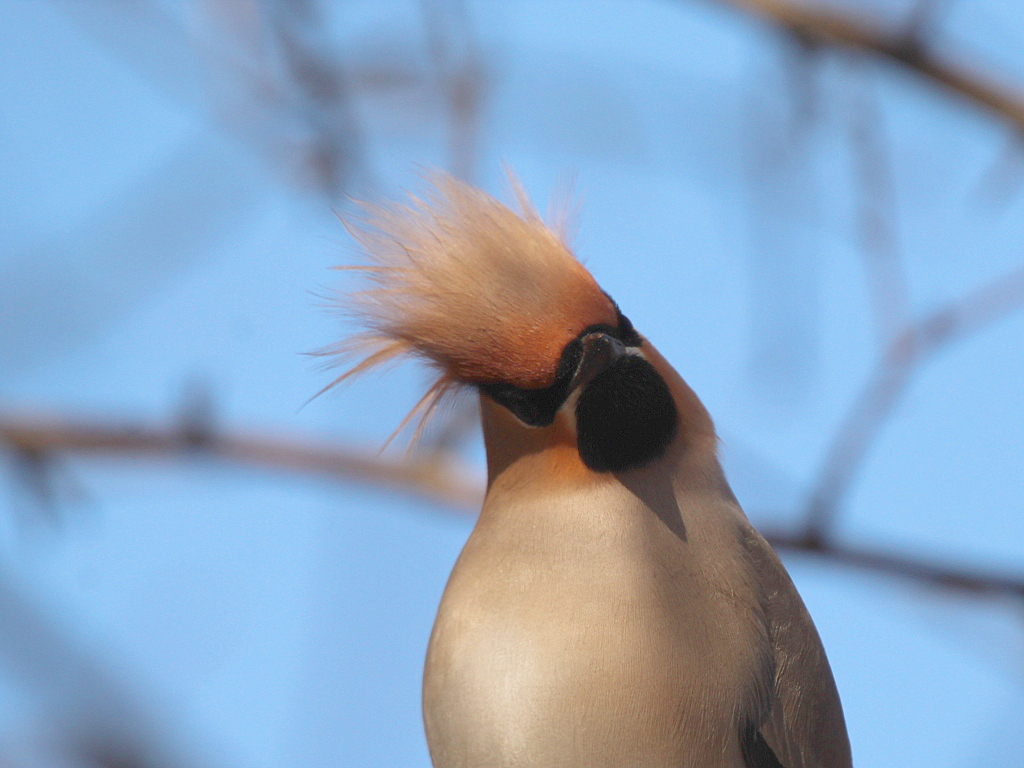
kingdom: Animalia
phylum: Chordata
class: Aves
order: Passeriformes
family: Bombycillidae
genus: Bombycilla
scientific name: Bombycilla garrulus
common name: Bohemian waxwing
